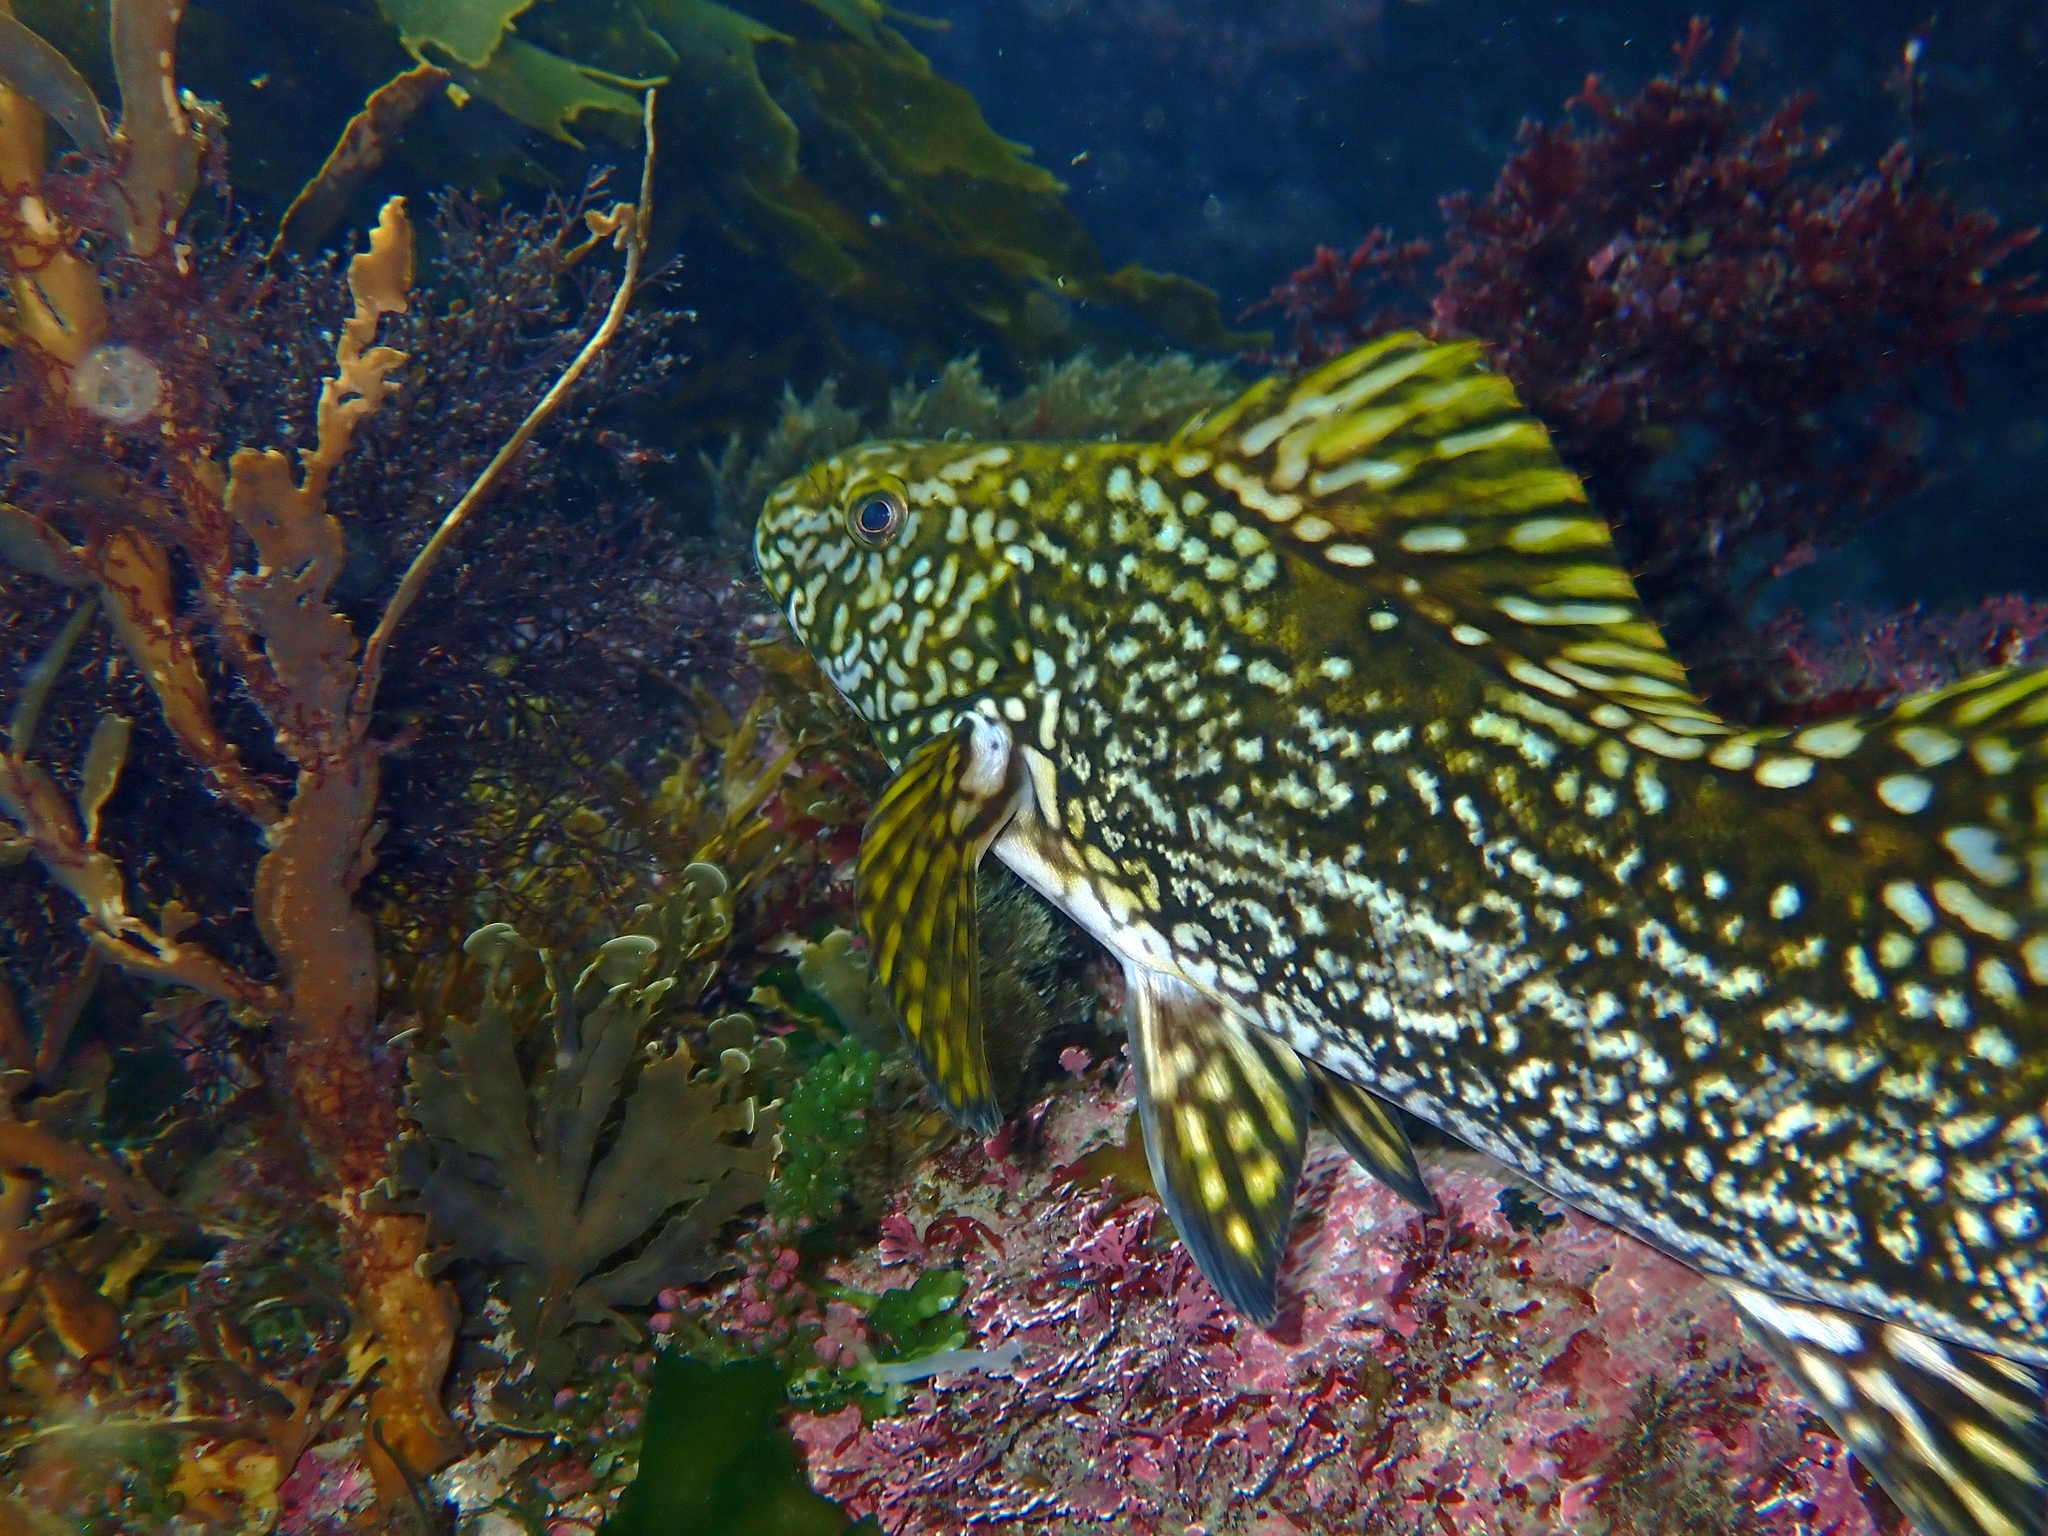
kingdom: Animalia
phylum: Chordata
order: Perciformes
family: Aplodactylidae
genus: Aplodactylus
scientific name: Aplodactylus arctidens
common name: Marblefish
